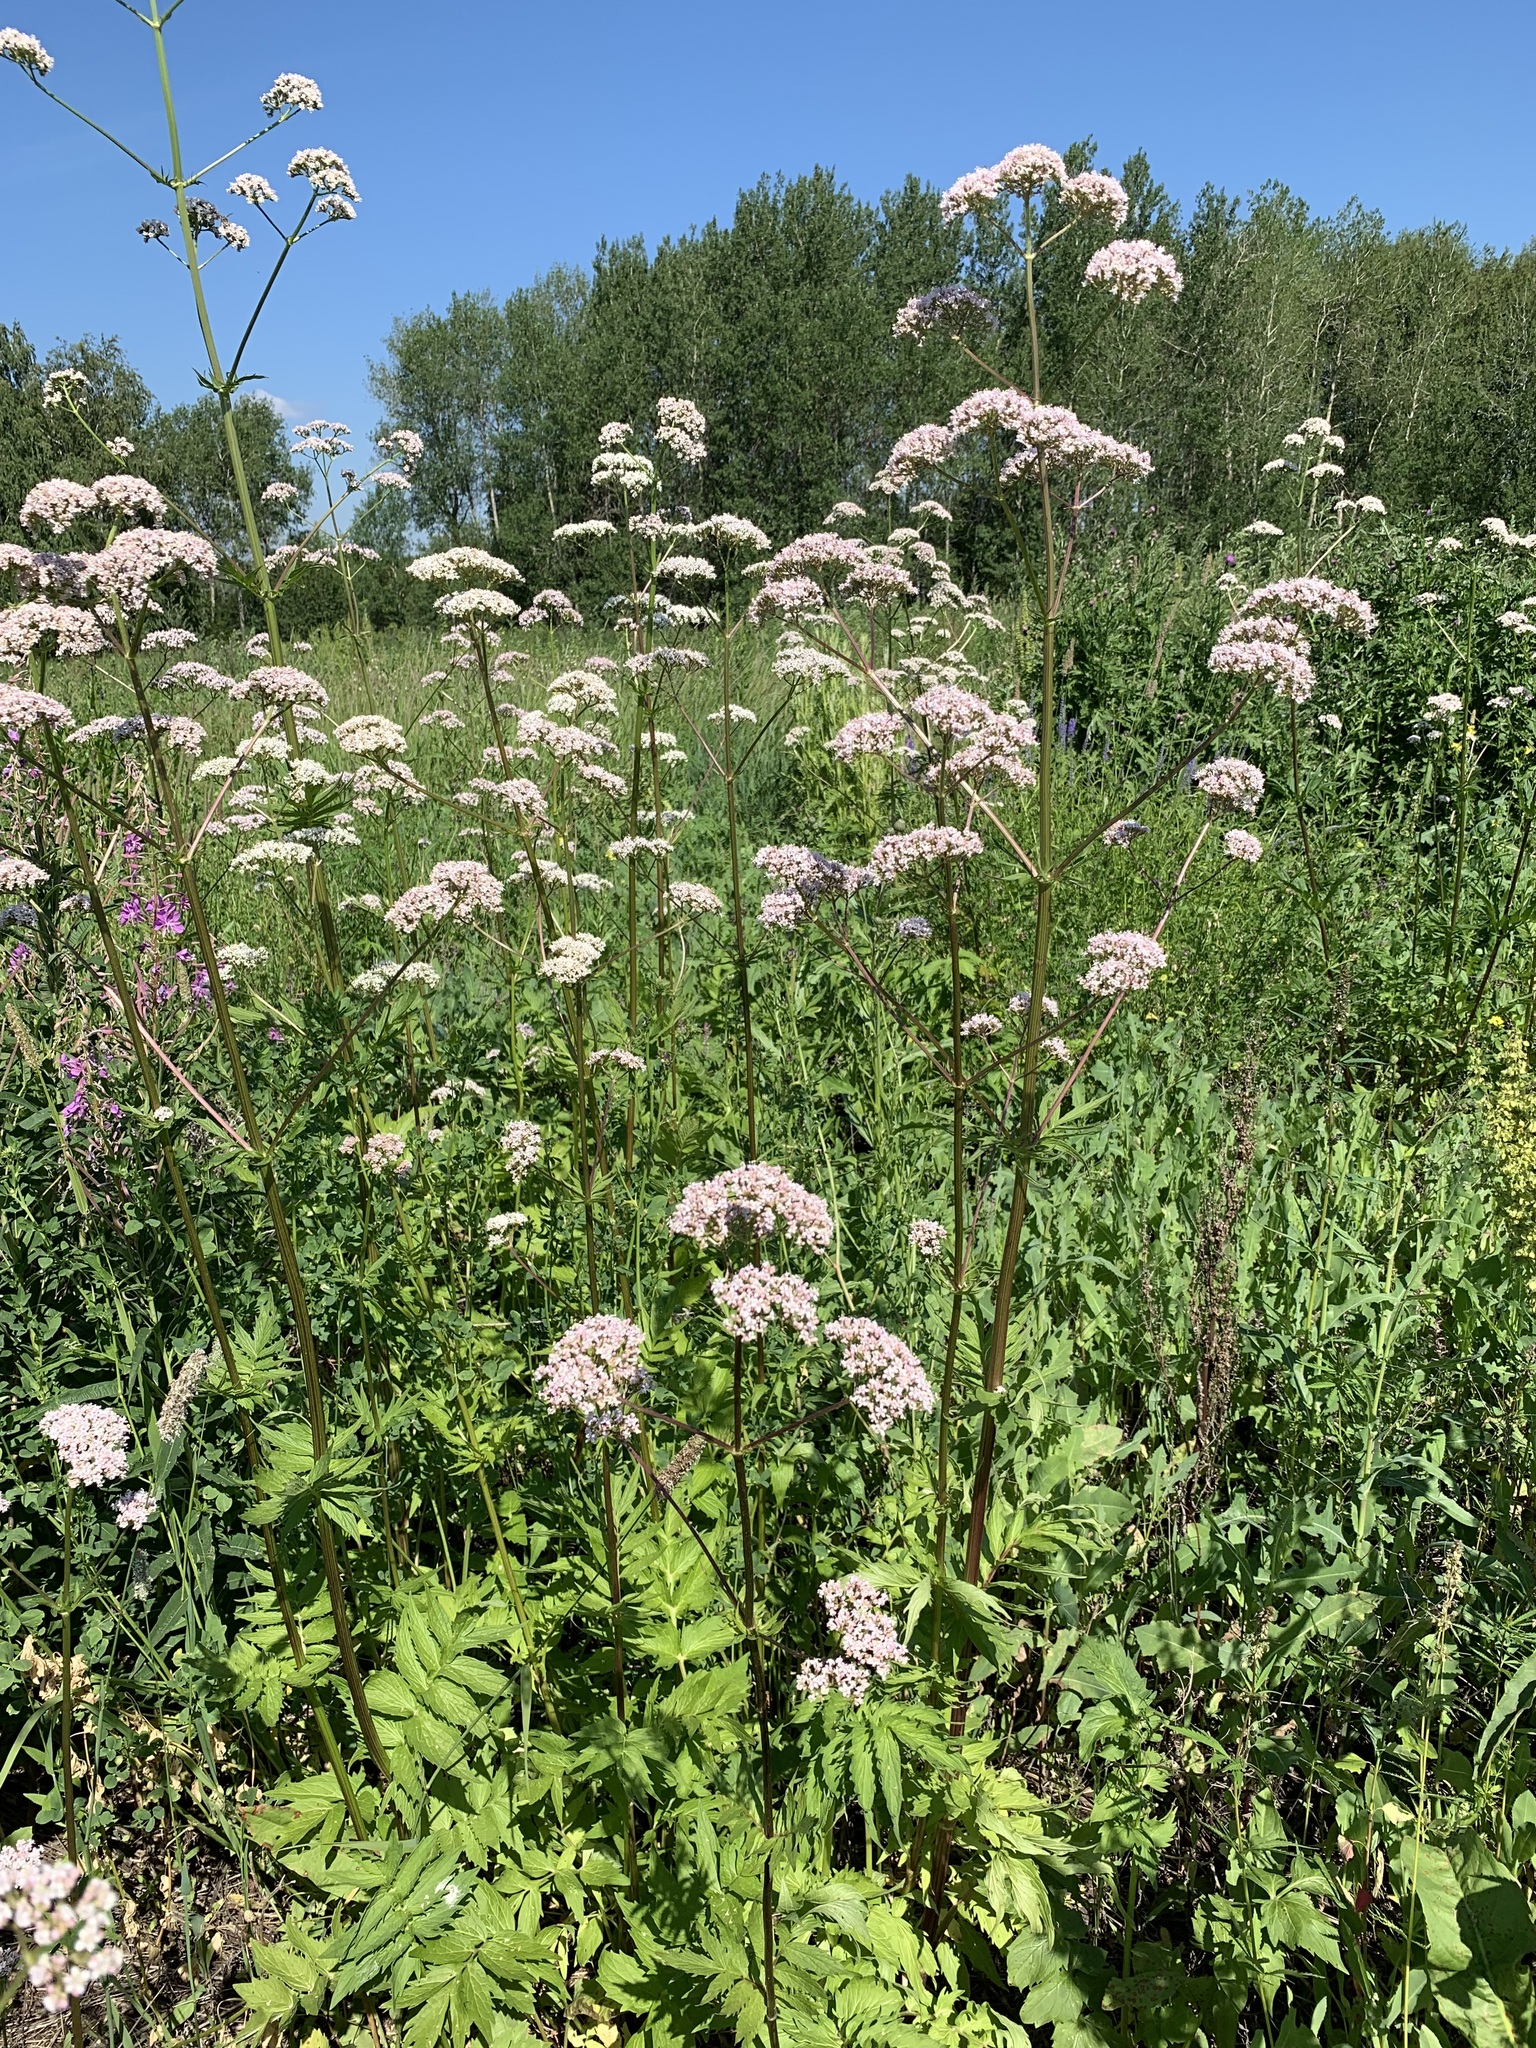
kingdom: Plantae
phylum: Tracheophyta
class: Magnoliopsida
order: Dipsacales
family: Caprifoliaceae
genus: Valeriana
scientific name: Valeriana officinalis
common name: Common valerian
